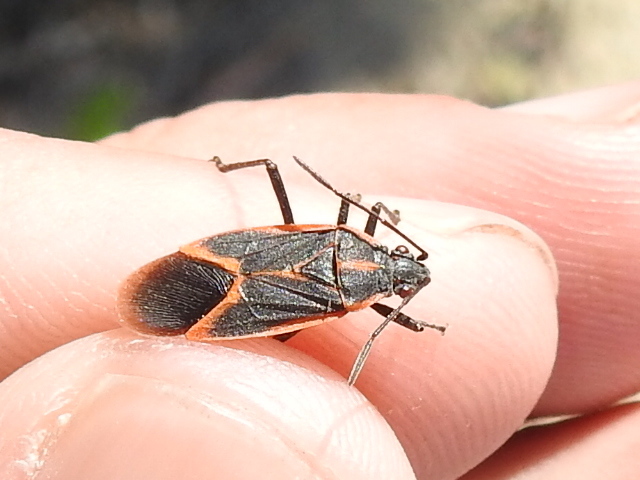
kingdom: Animalia
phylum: Arthropoda
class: Insecta
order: Hemiptera
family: Rhopalidae
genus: Boisea
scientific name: Boisea trivittata
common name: Boxelder bug
